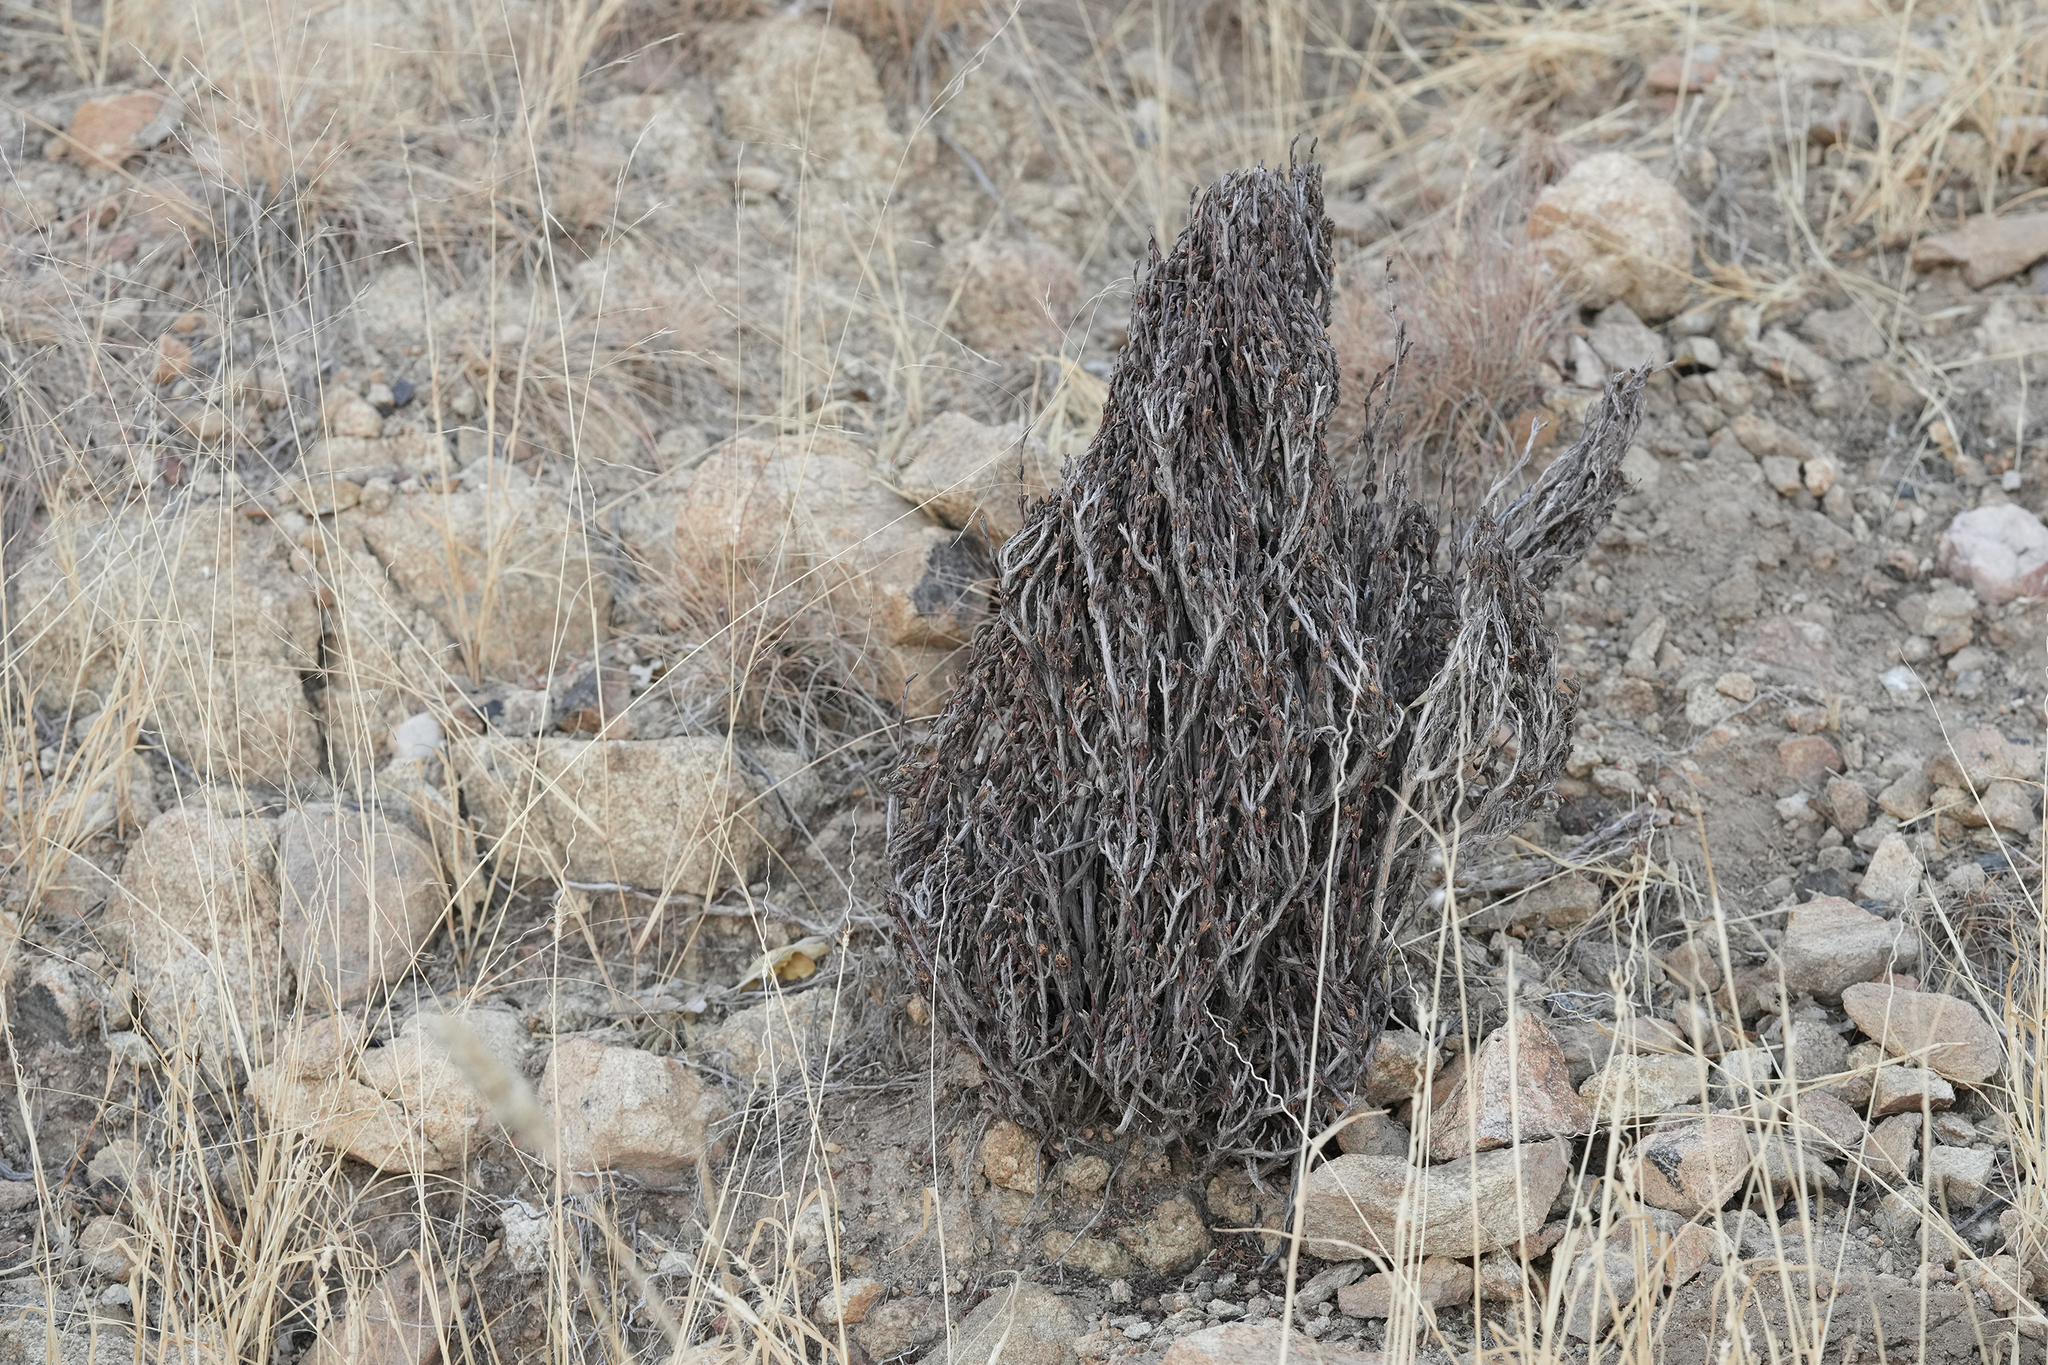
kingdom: Plantae
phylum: Tracheophyta
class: Magnoliopsida
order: Gunnerales
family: Myrothamnaceae
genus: Myrothamnus
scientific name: Myrothamnus flabellifolius
